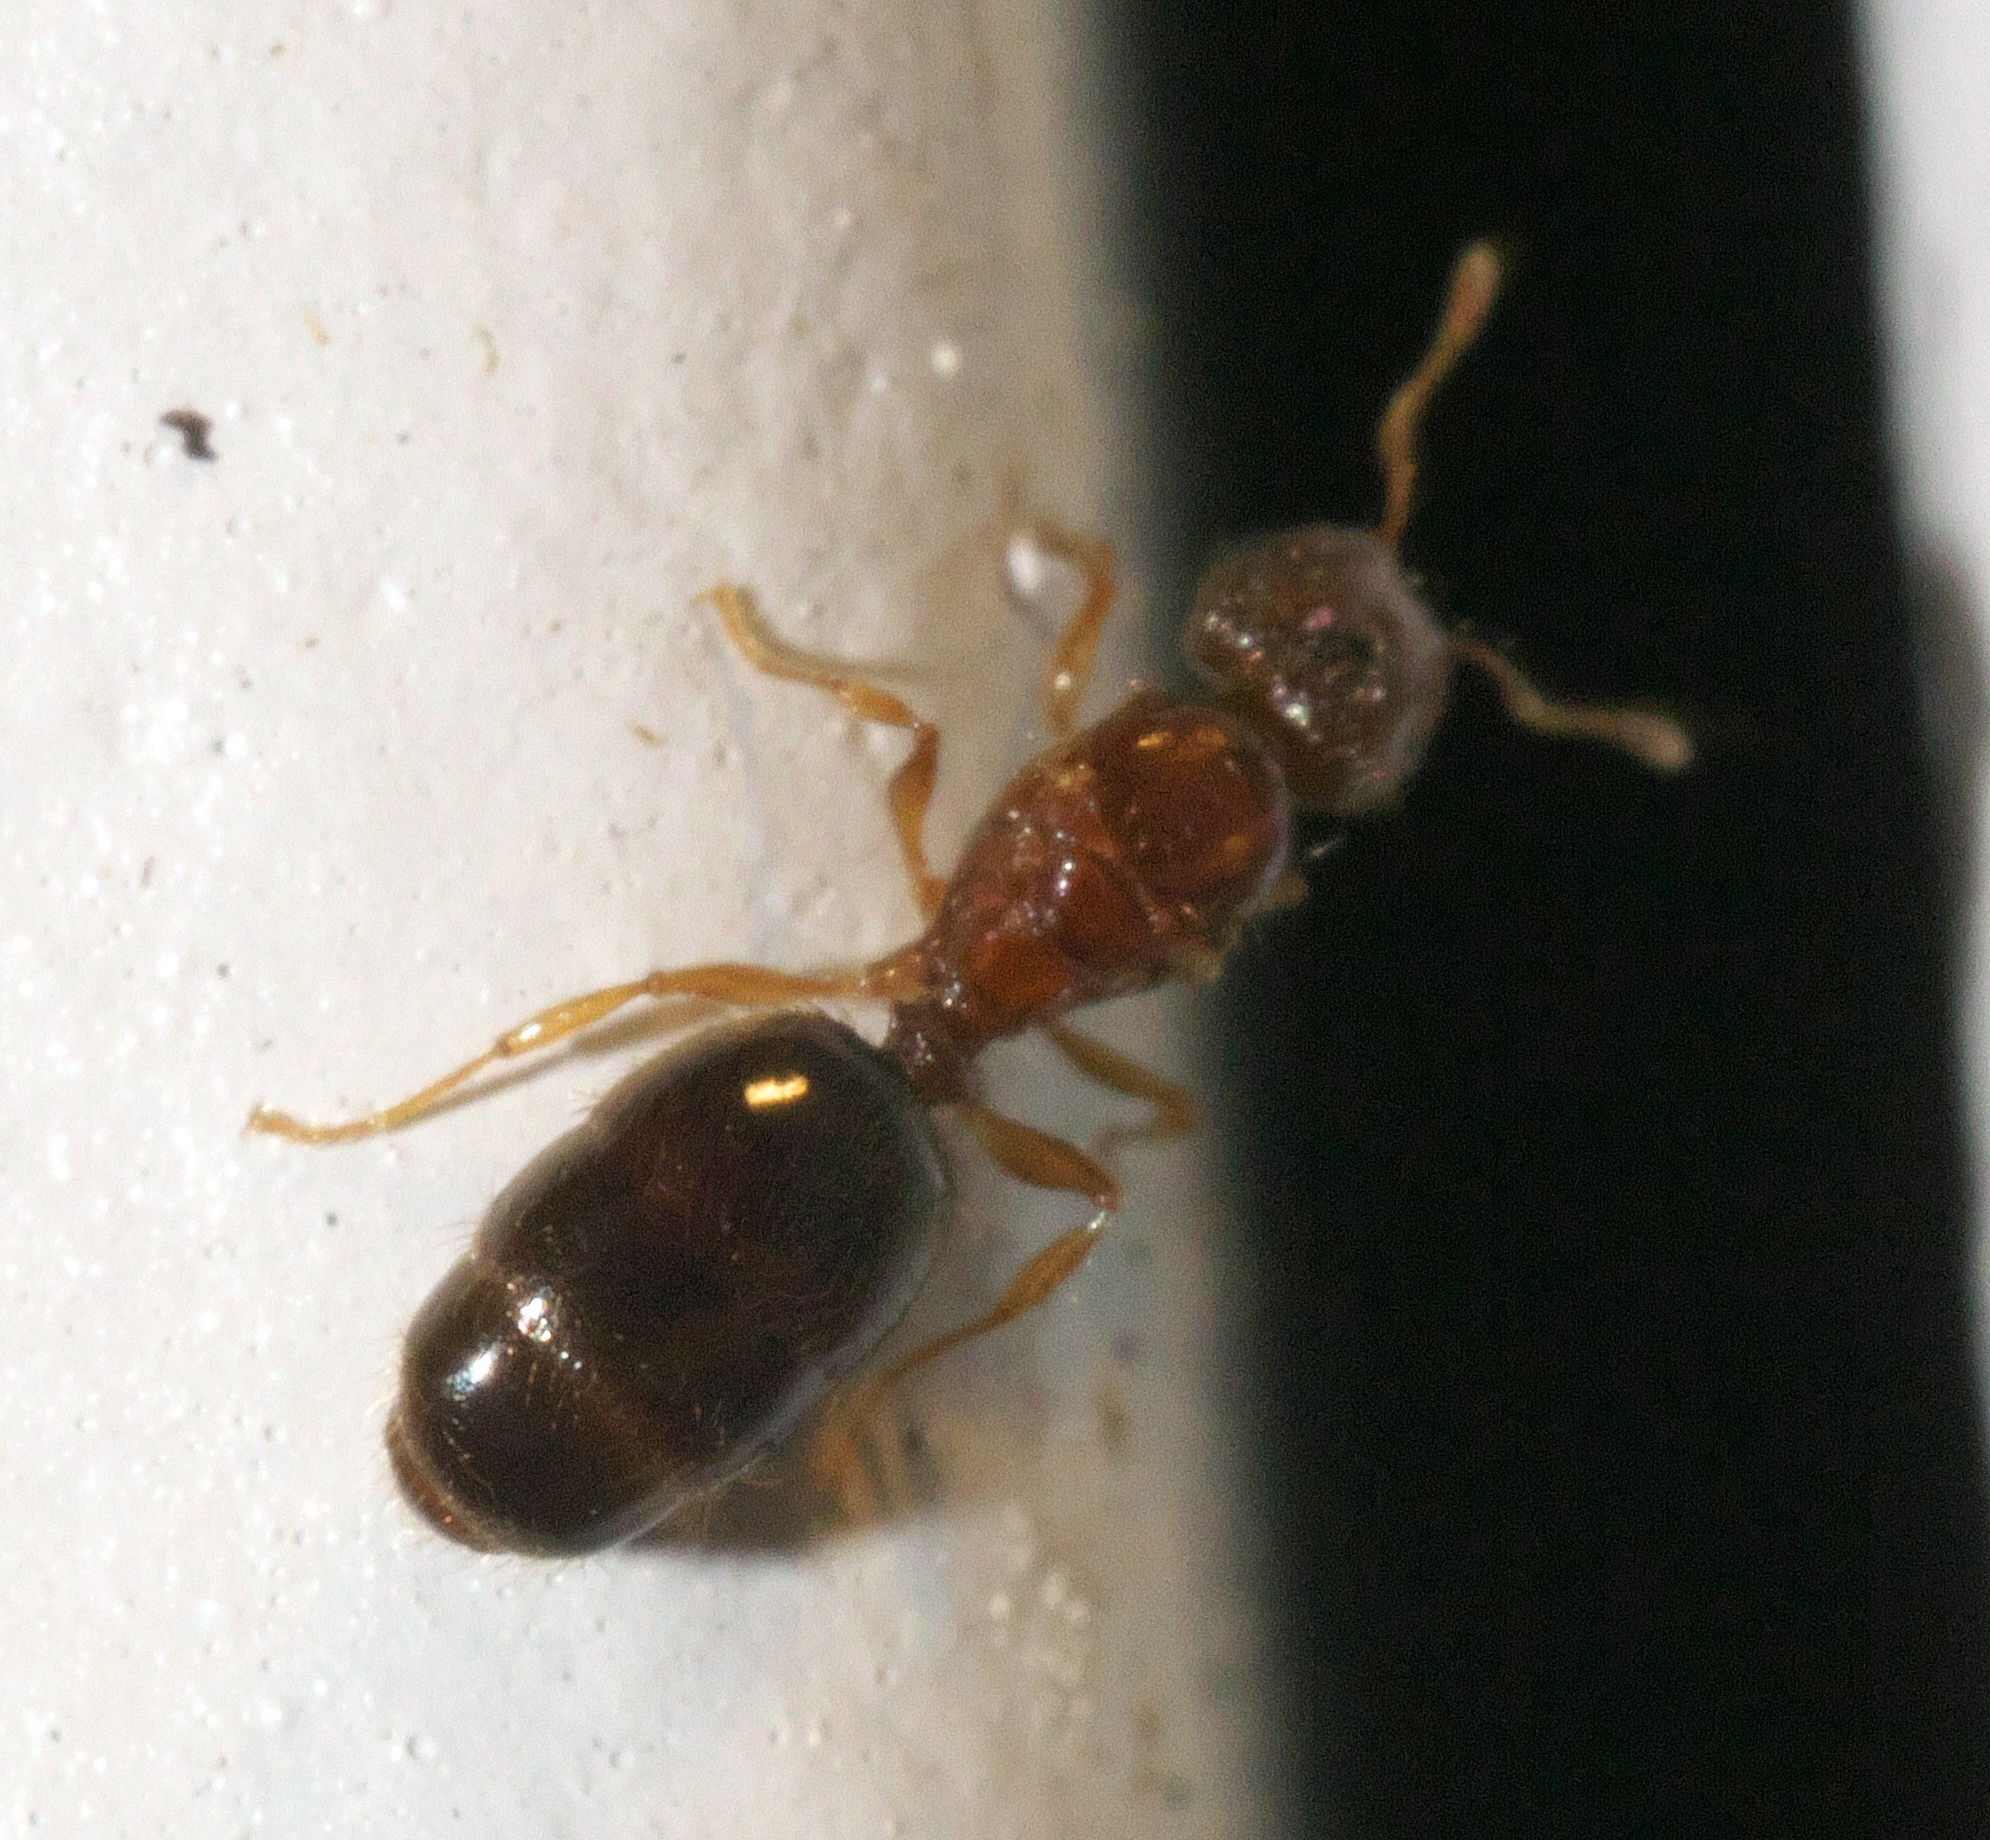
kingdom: Animalia
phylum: Arthropoda
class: Insecta
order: Hymenoptera
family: Formicidae
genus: Pheidole
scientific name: Pheidole parva
